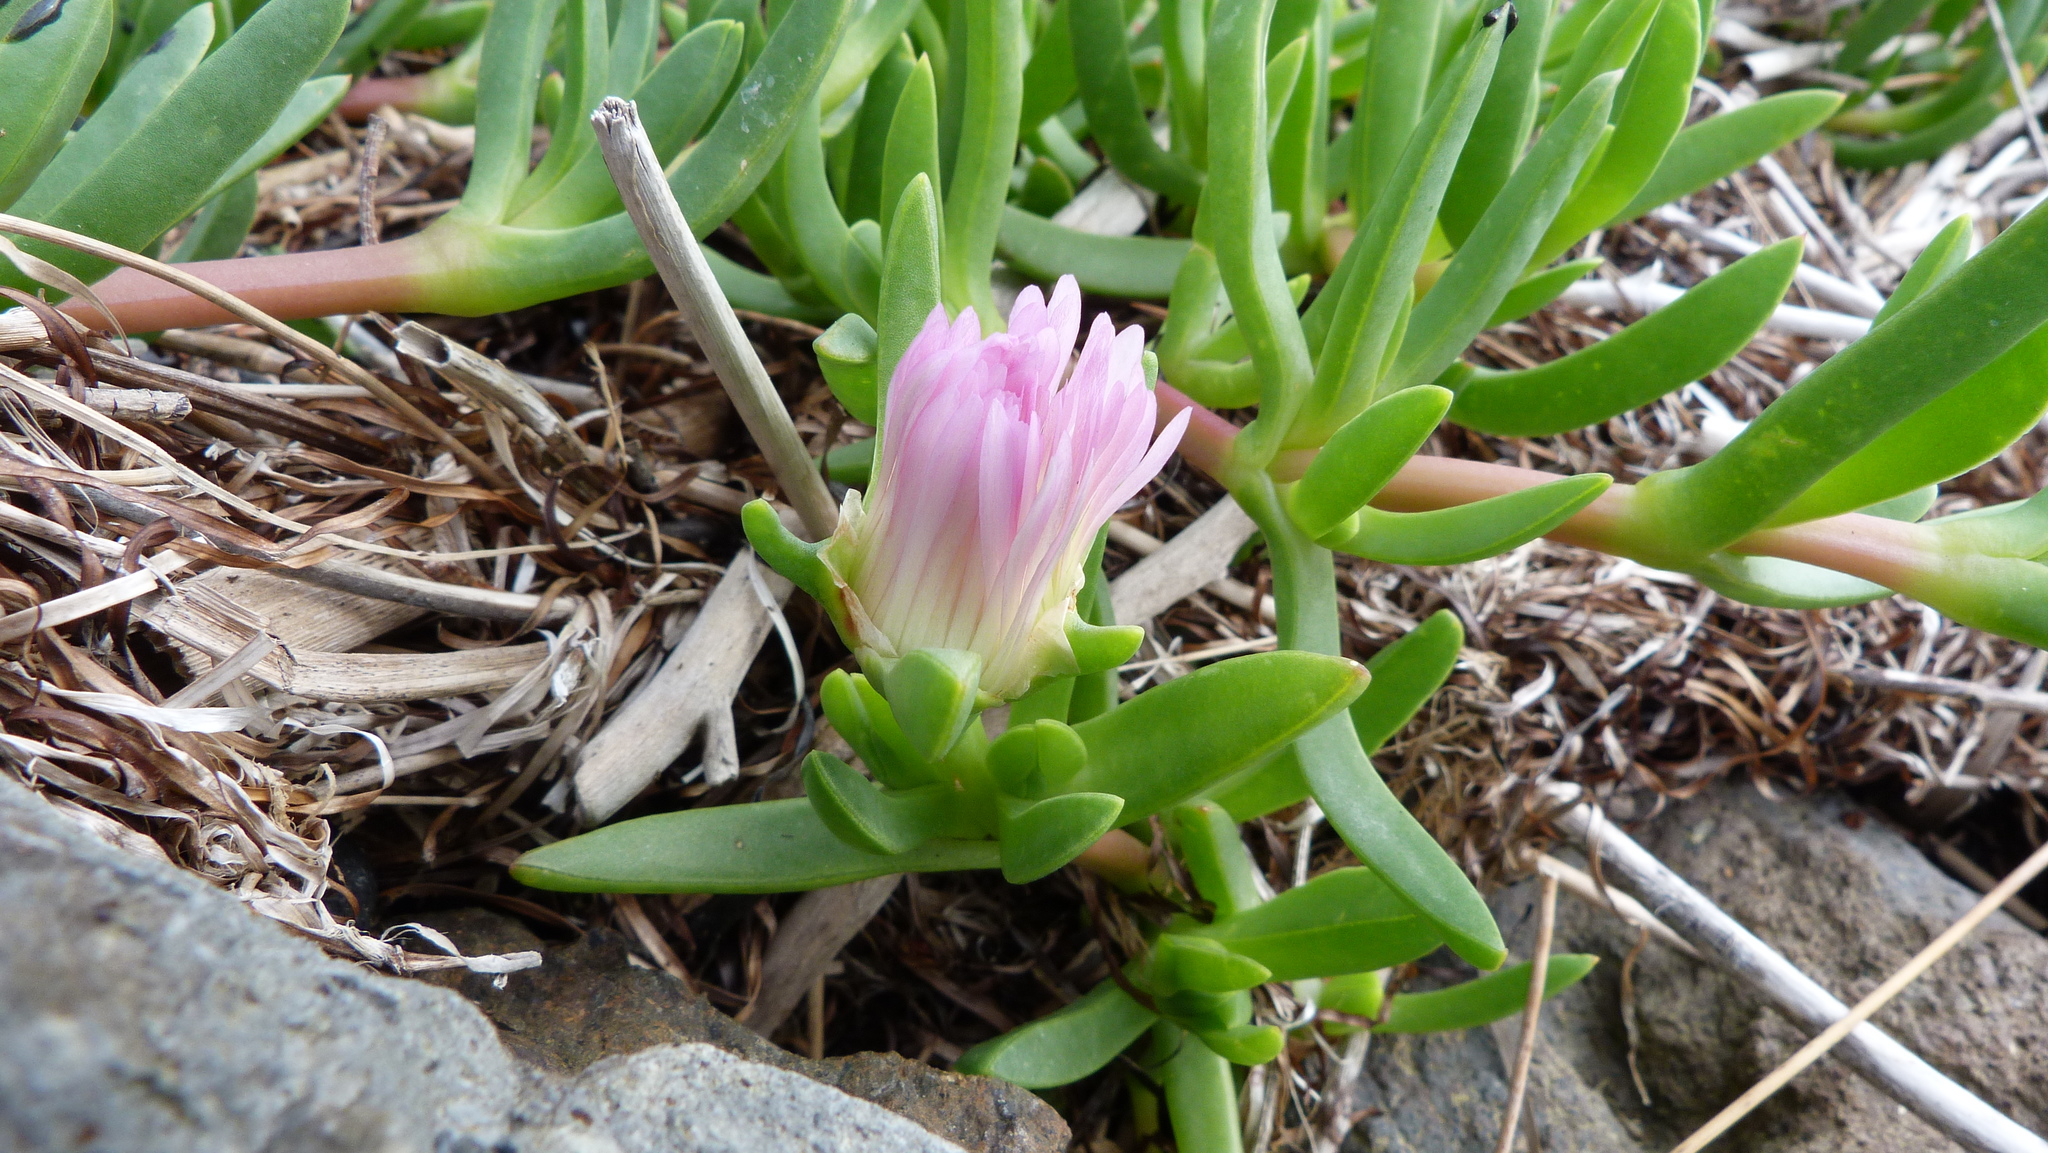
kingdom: Plantae
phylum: Tracheophyta
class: Magnoliopsida
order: Caryophyllales
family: Aizoaceae
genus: Disphyma
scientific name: Disphyma australe
